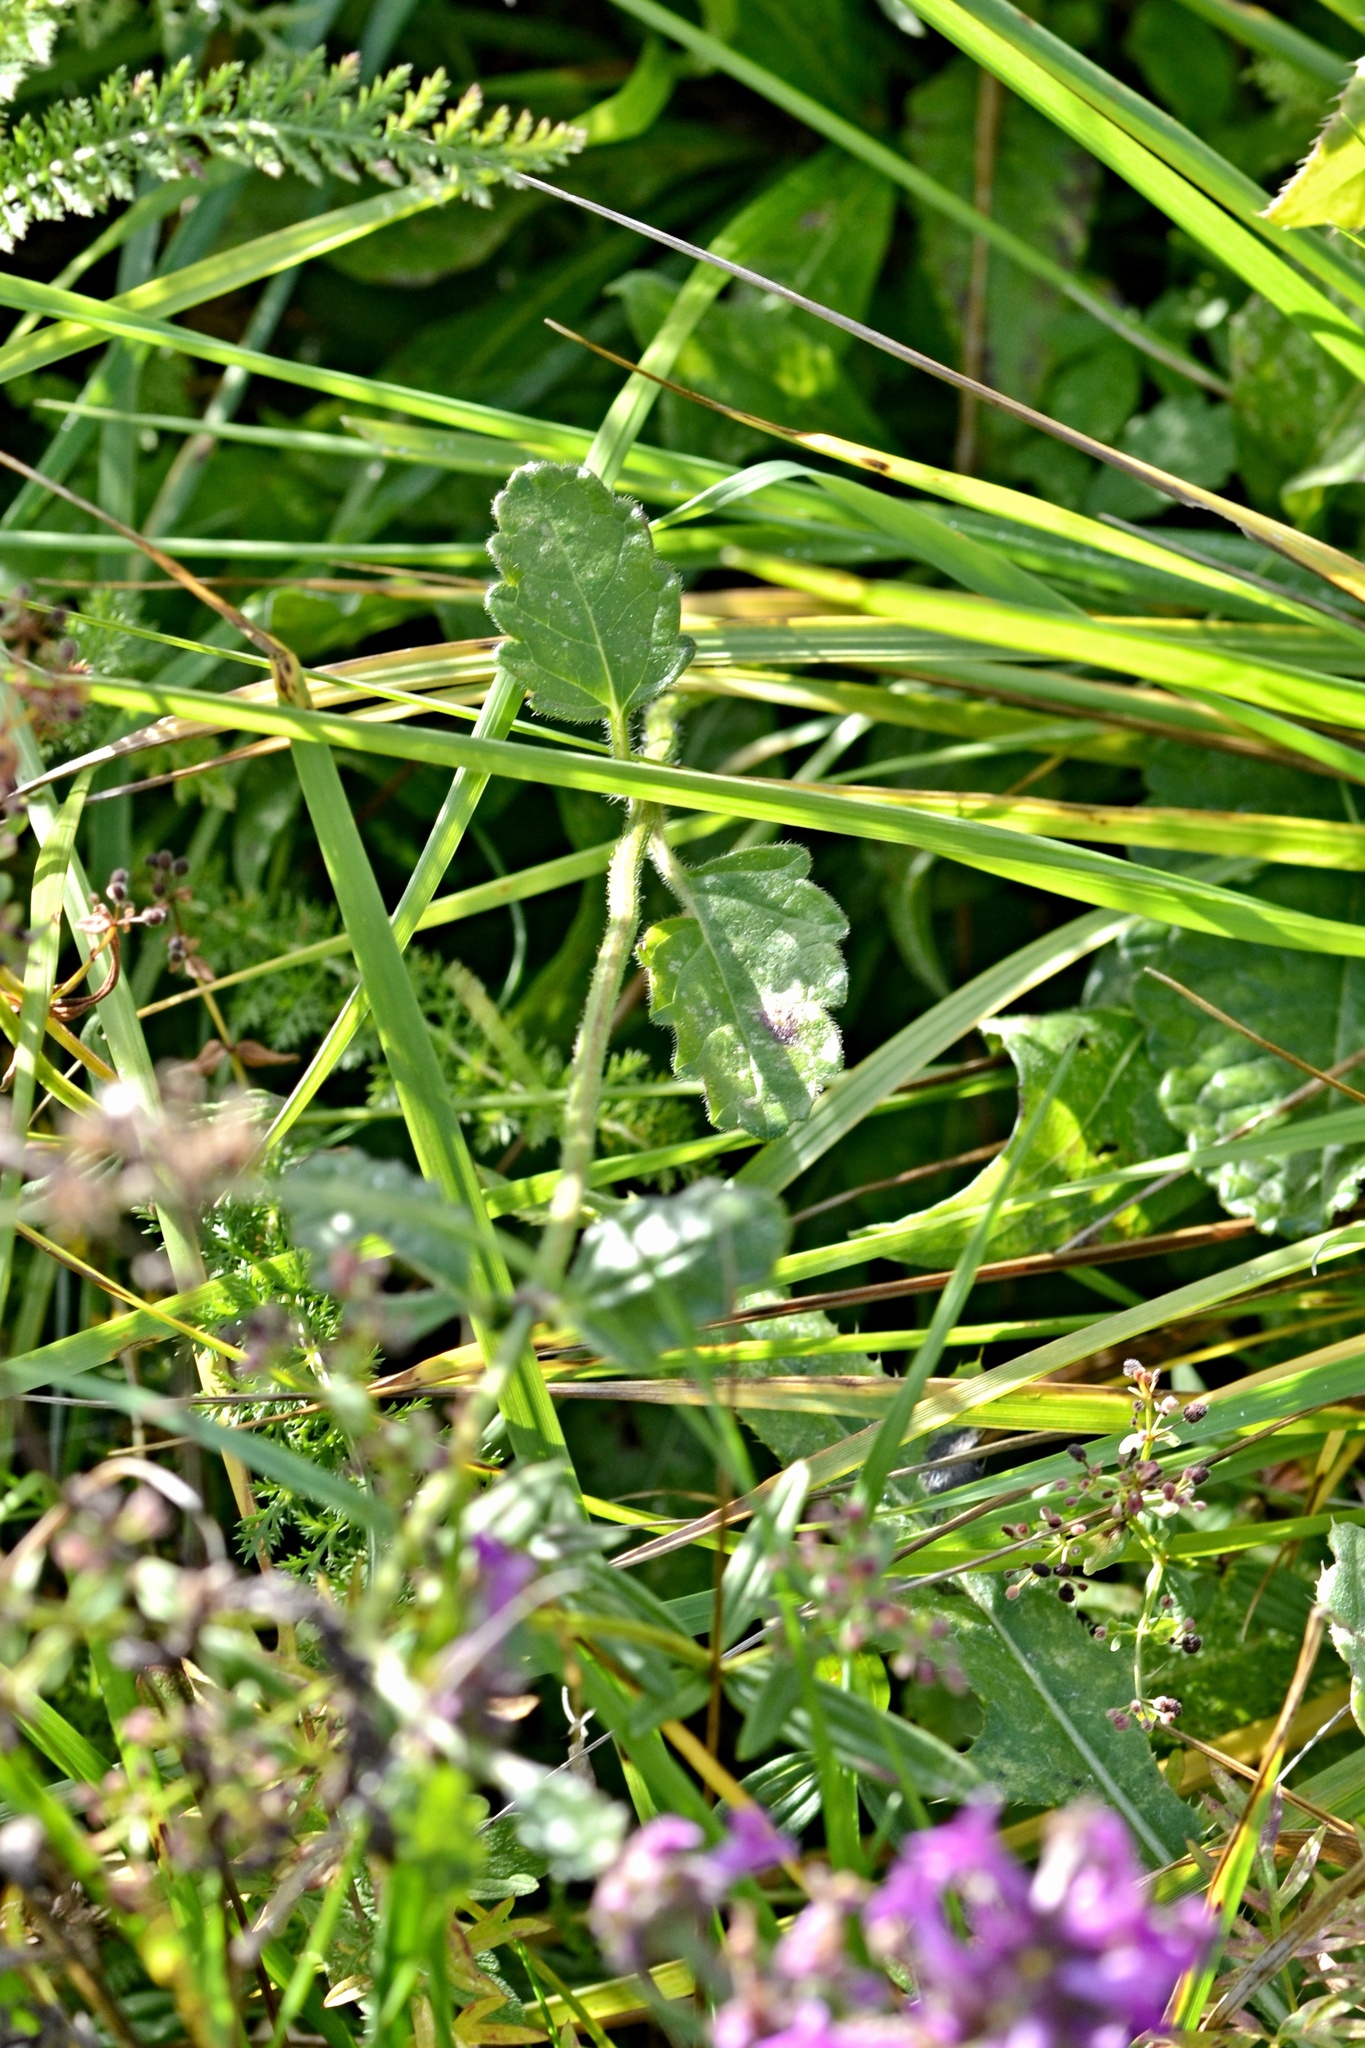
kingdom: Plantae
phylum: Tracheophyta
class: Magnoliopsida
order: Lamiales
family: Lamiaceae
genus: Betonica
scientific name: Betonica officinalis
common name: Bishop's-wort
